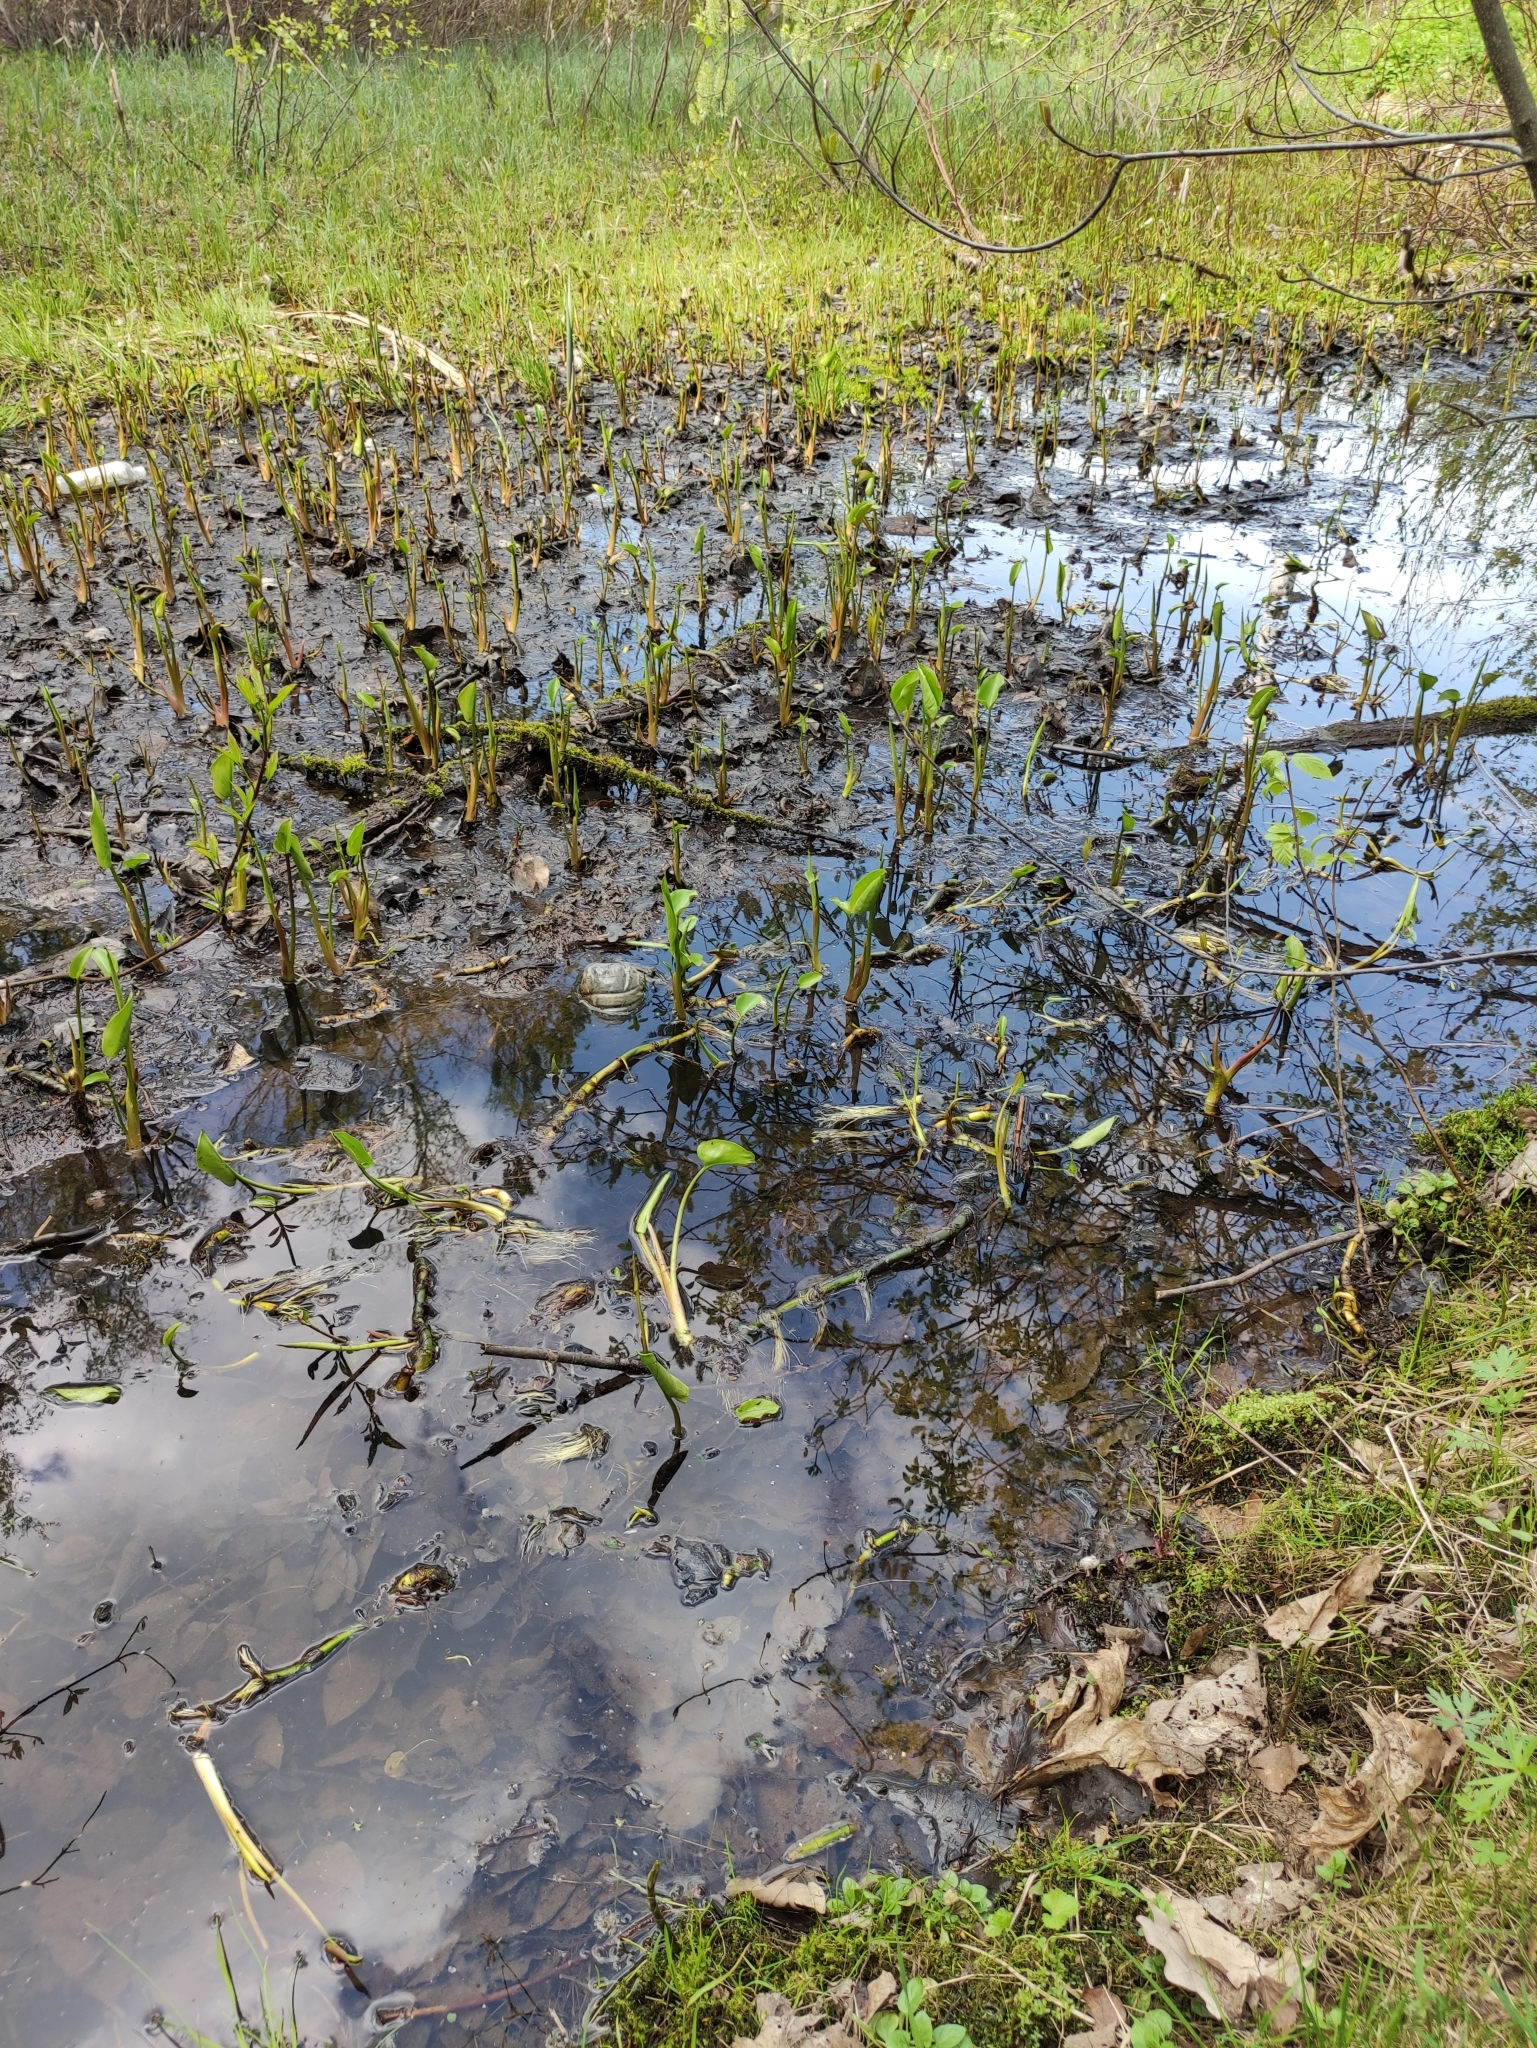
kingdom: Plantae
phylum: Tracheophyta
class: Liliopsida
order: Alismatales
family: Araceae
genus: Calla
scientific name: Calla palustris
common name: Bog arum
